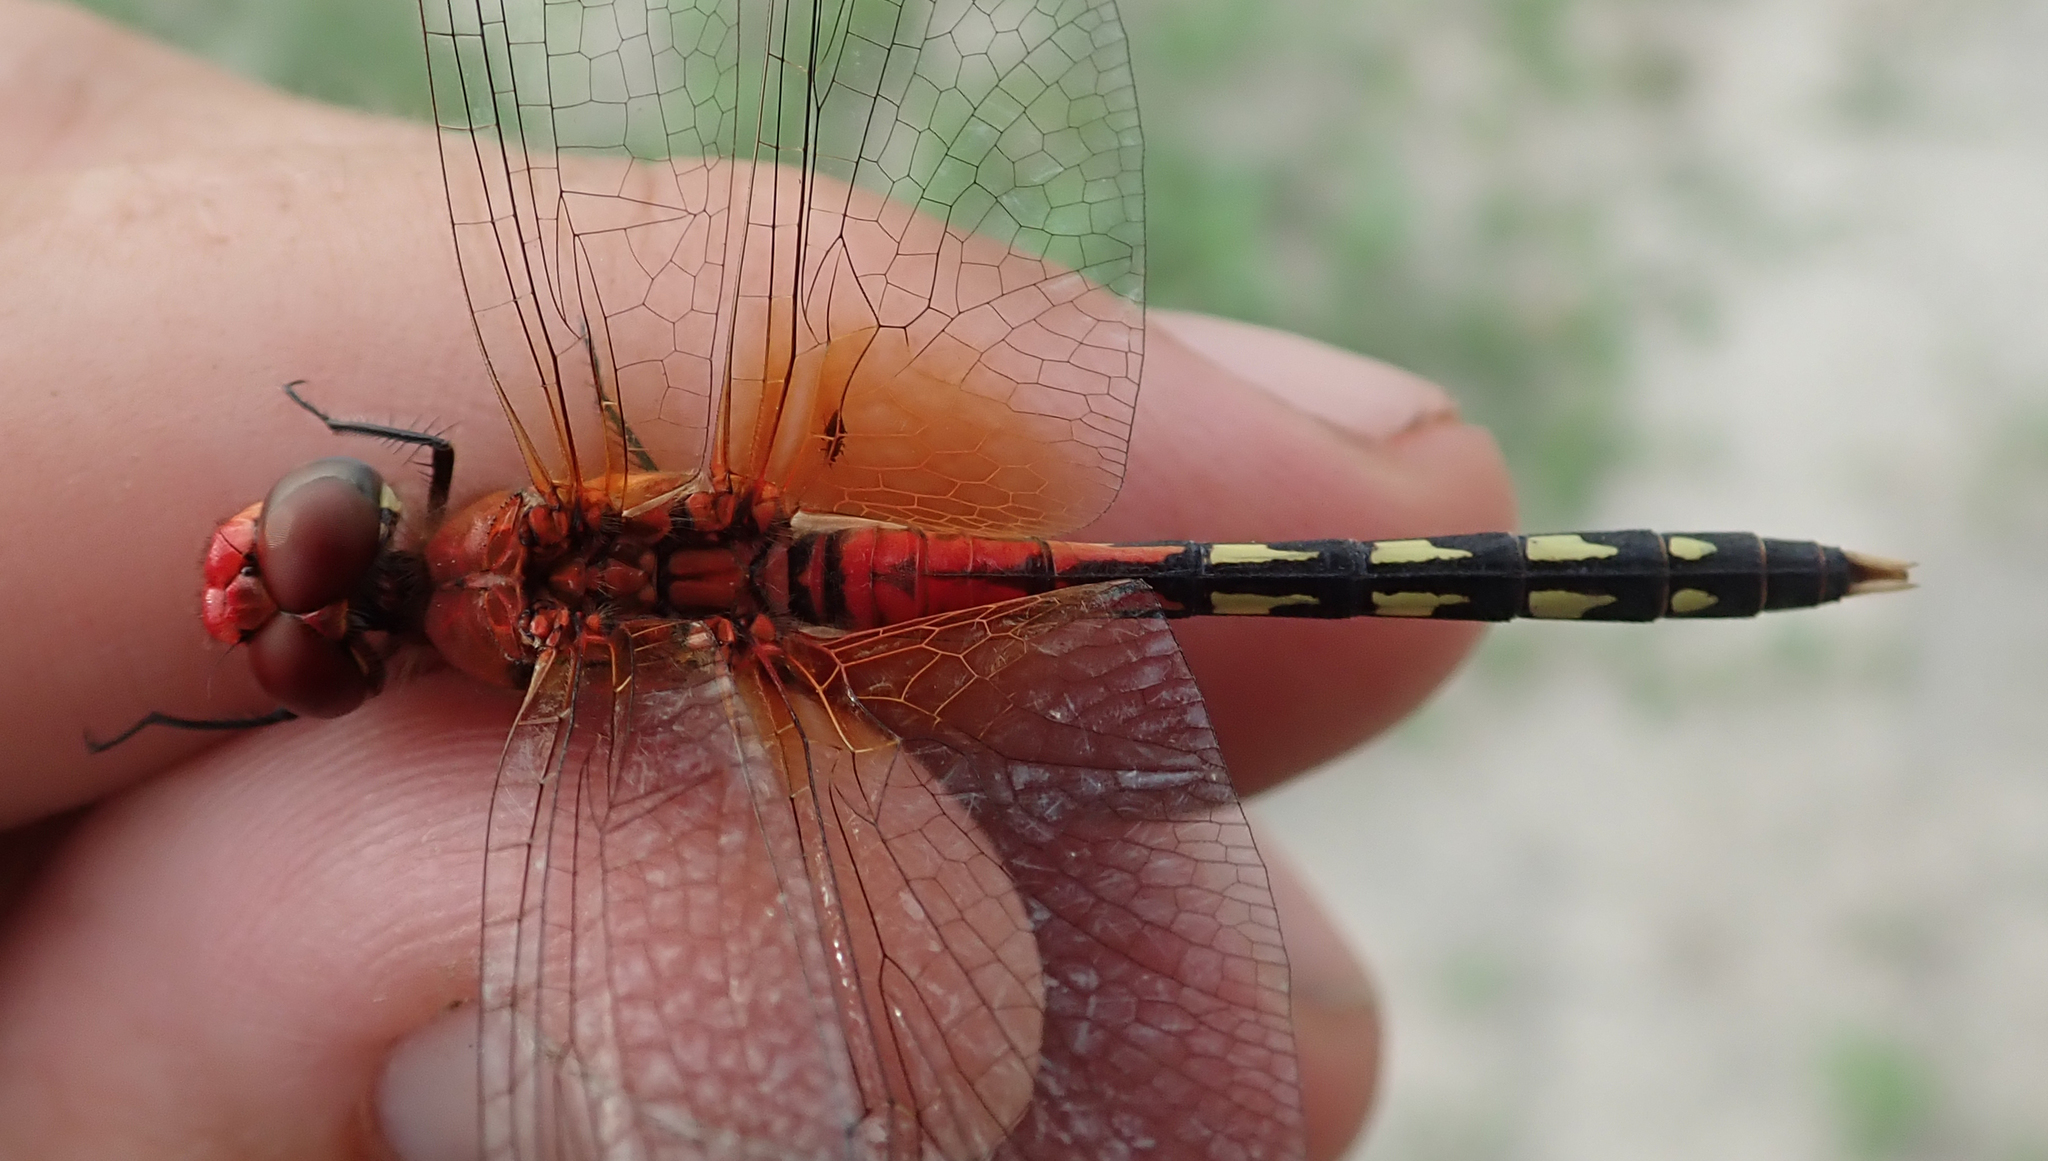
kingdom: Animalia
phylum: Arthropoda
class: Insecta
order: Odonata
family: Libellulidae
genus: Diplacodes
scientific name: Diplacodes luminans
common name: Barbet percher
